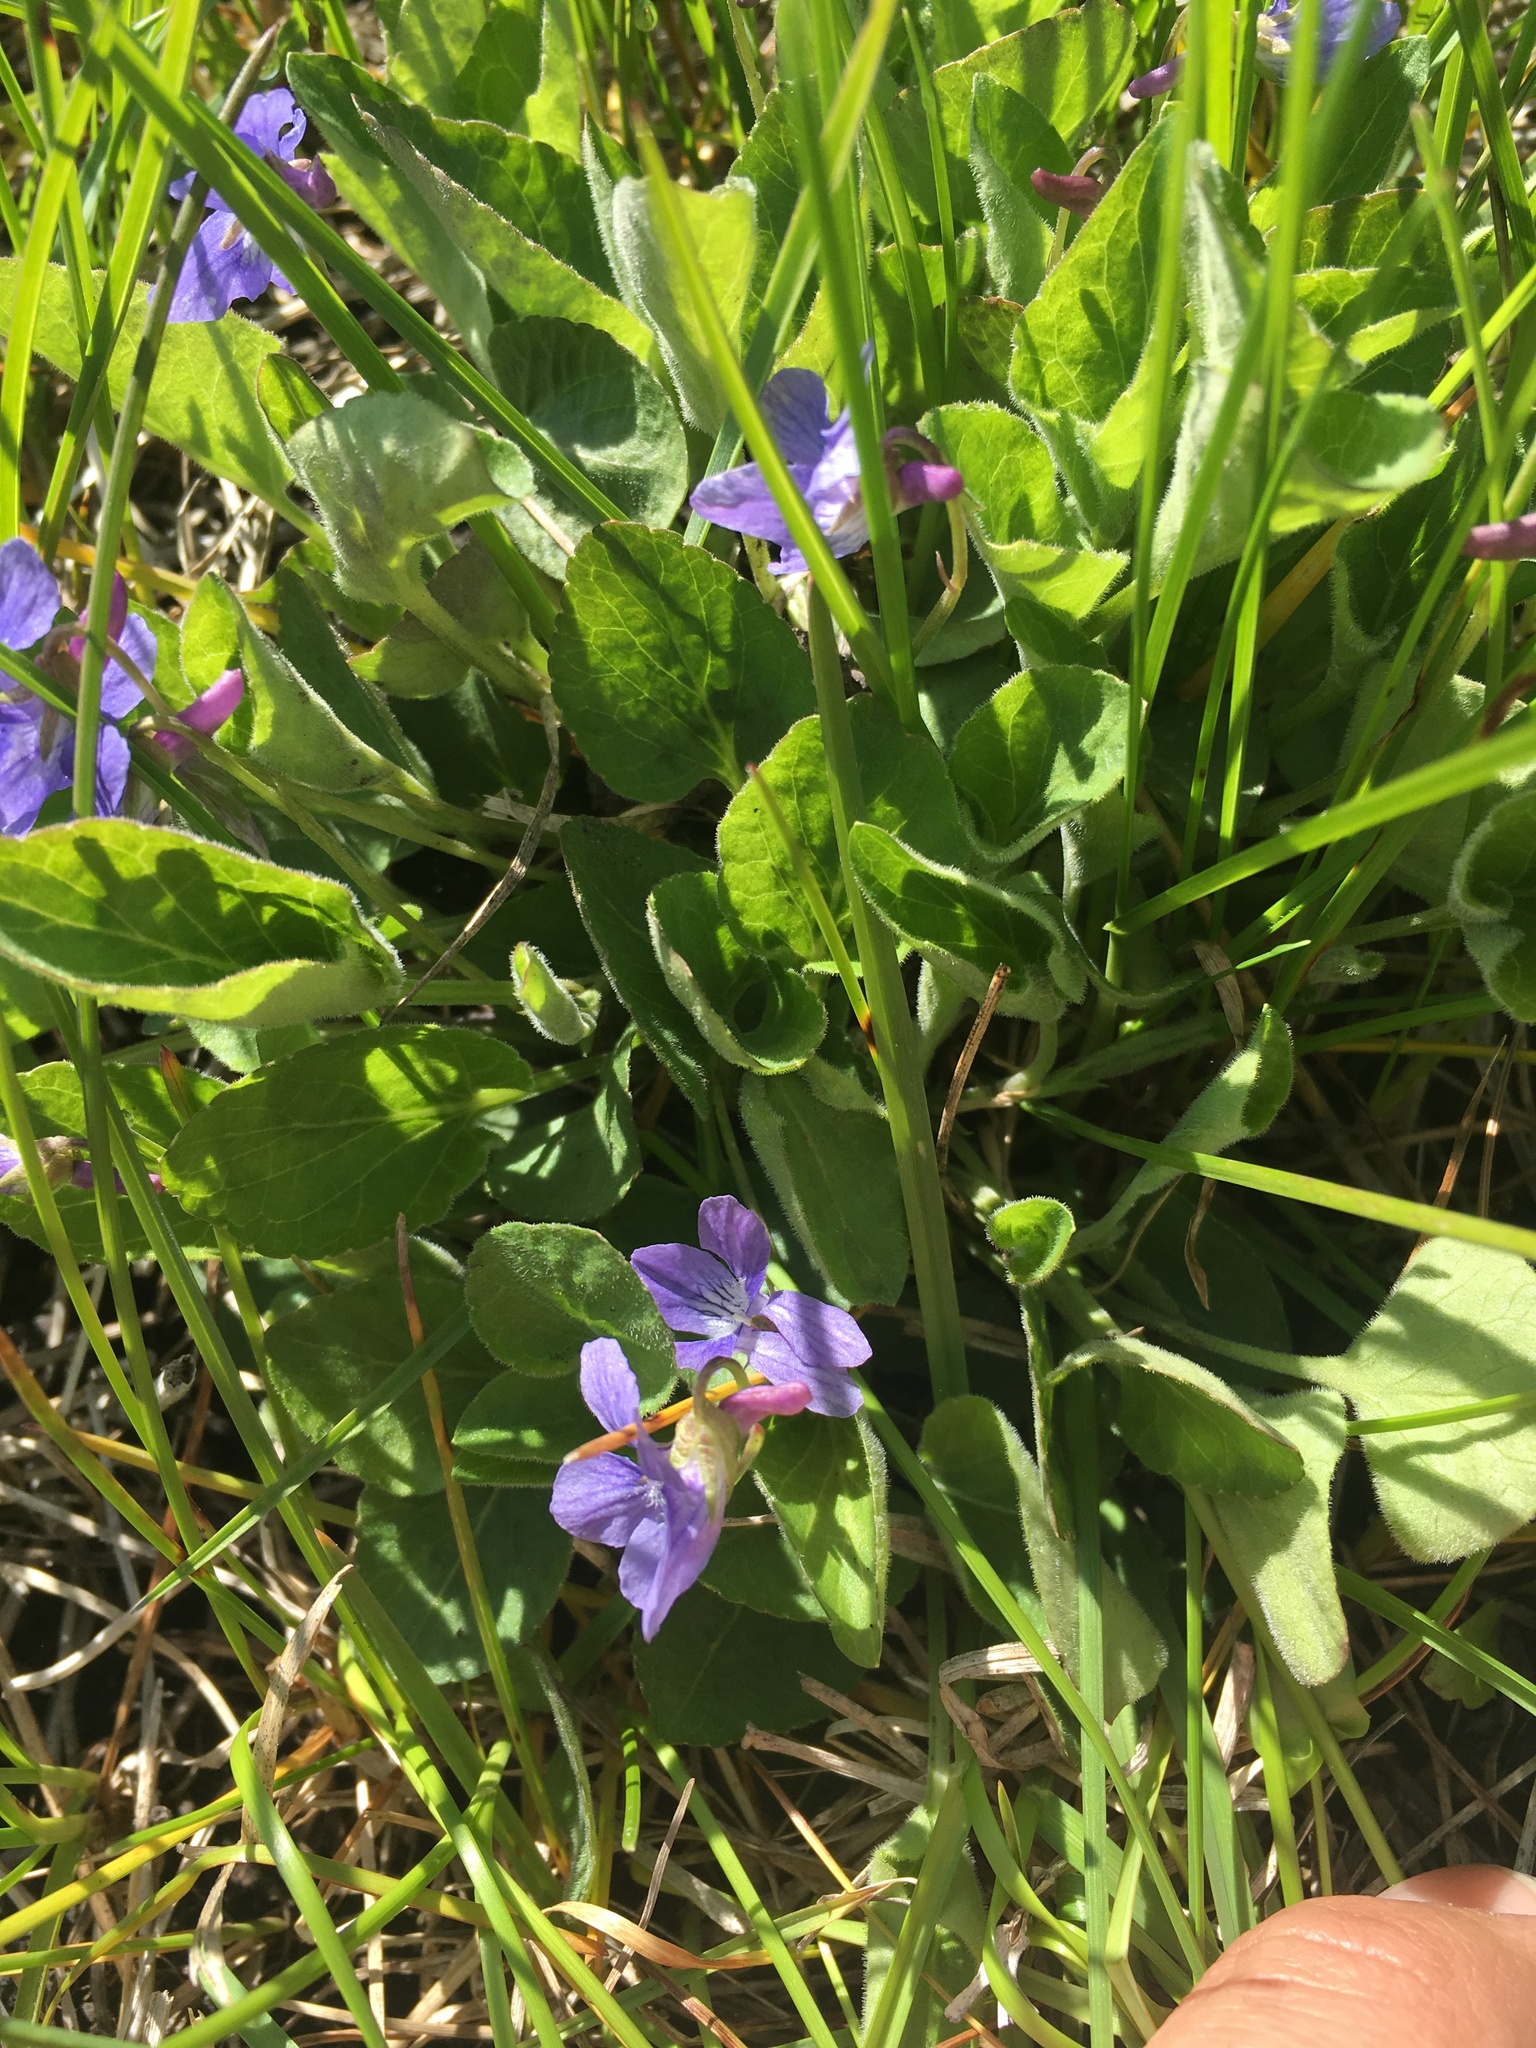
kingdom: Plantae
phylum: Tracheophyta
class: Magnoliopsida
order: Malpighiales
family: Violaceae
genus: Viola
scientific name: Viola adunca
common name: Sand violet
